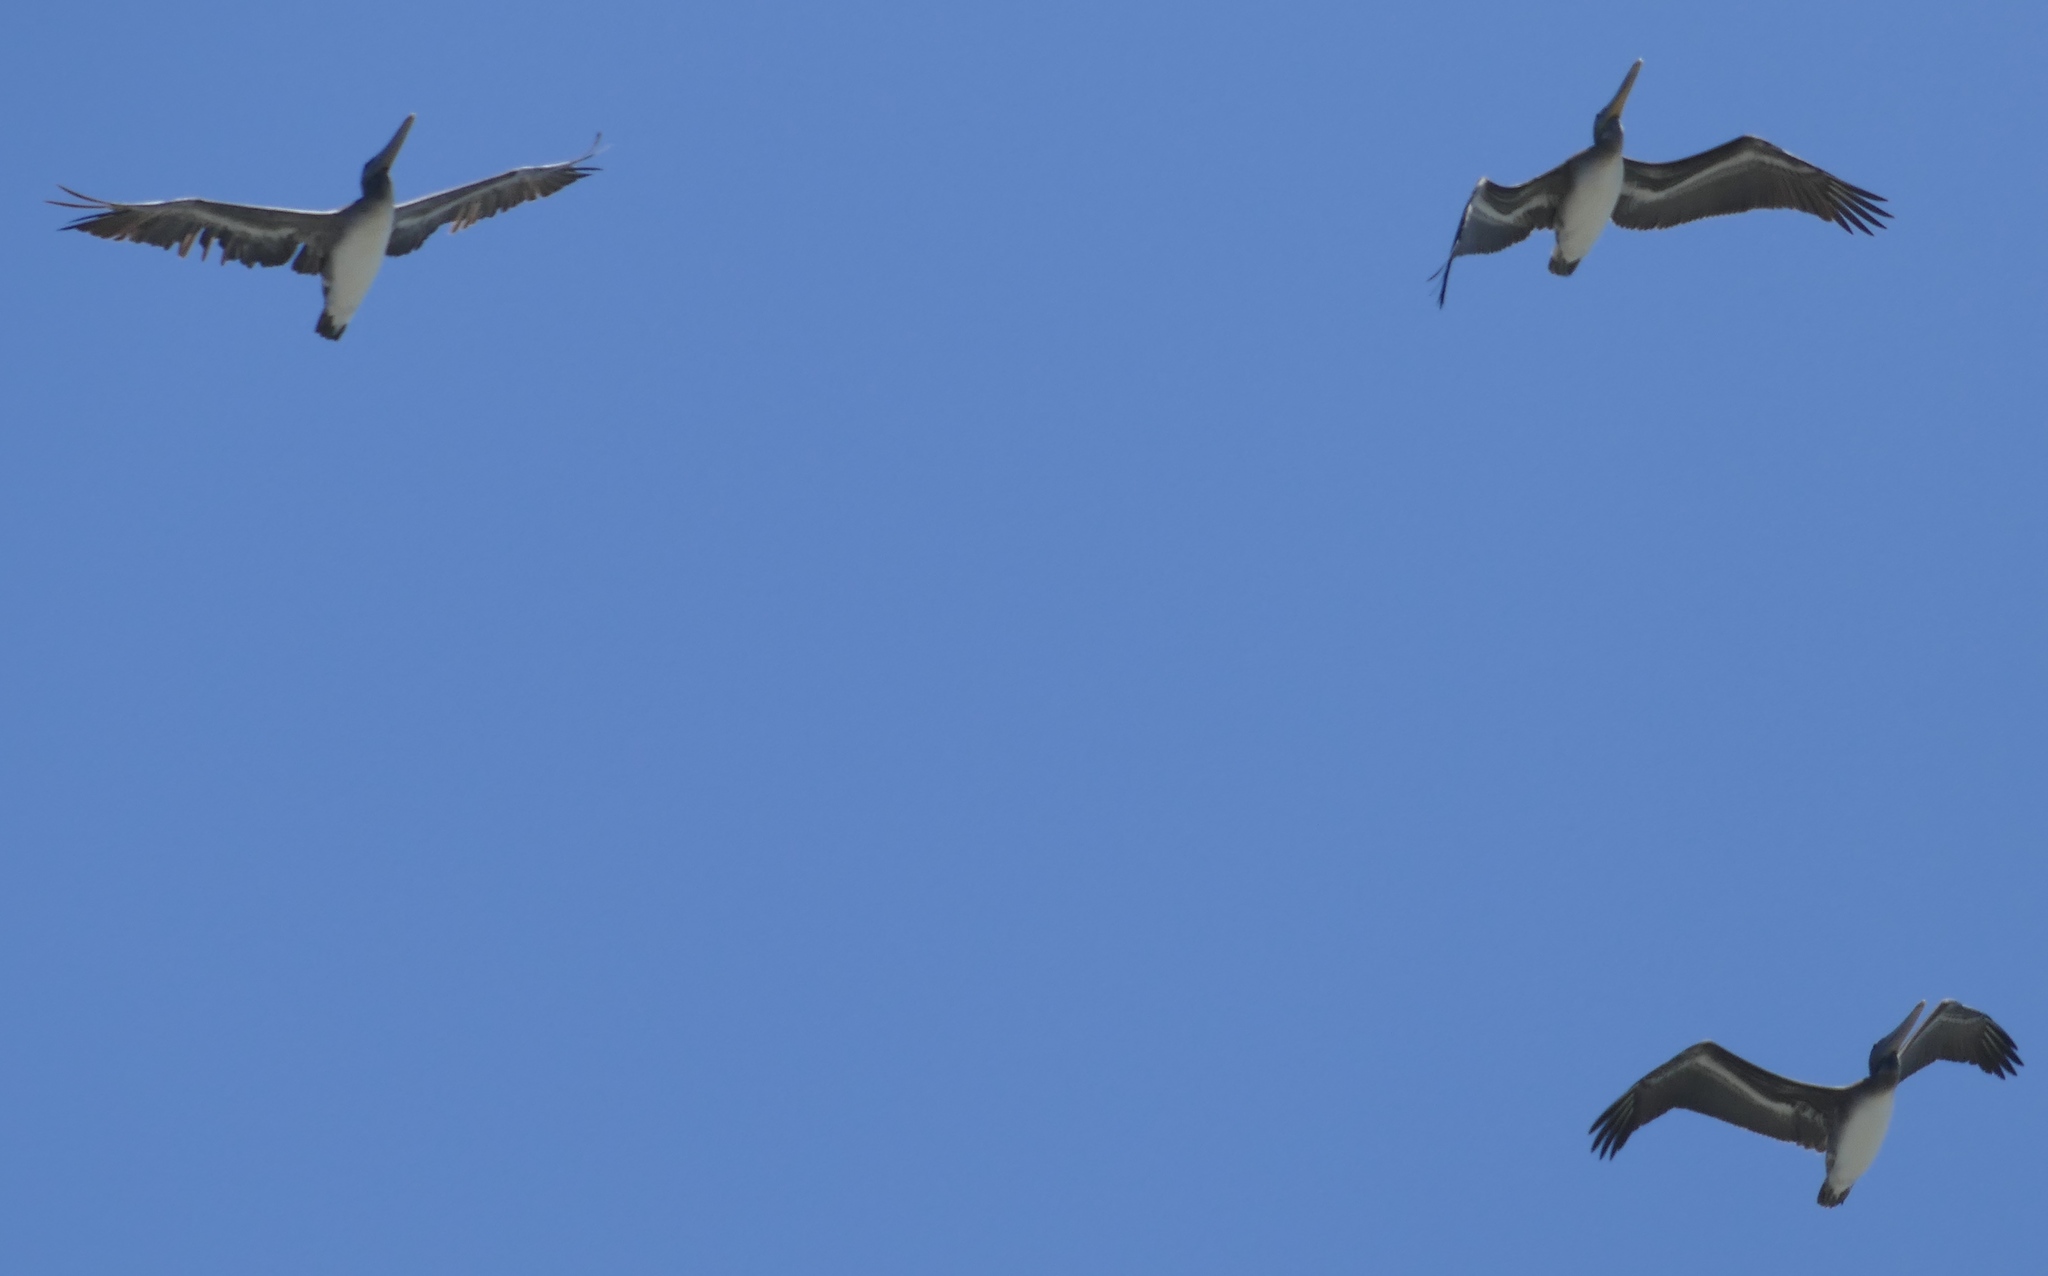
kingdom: Animalia
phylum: Chordata
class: Aves
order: Pelecaniformes
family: Pelecanidae
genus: Pelecanus
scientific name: Pelecanus occidentalis
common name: Brown pelican
